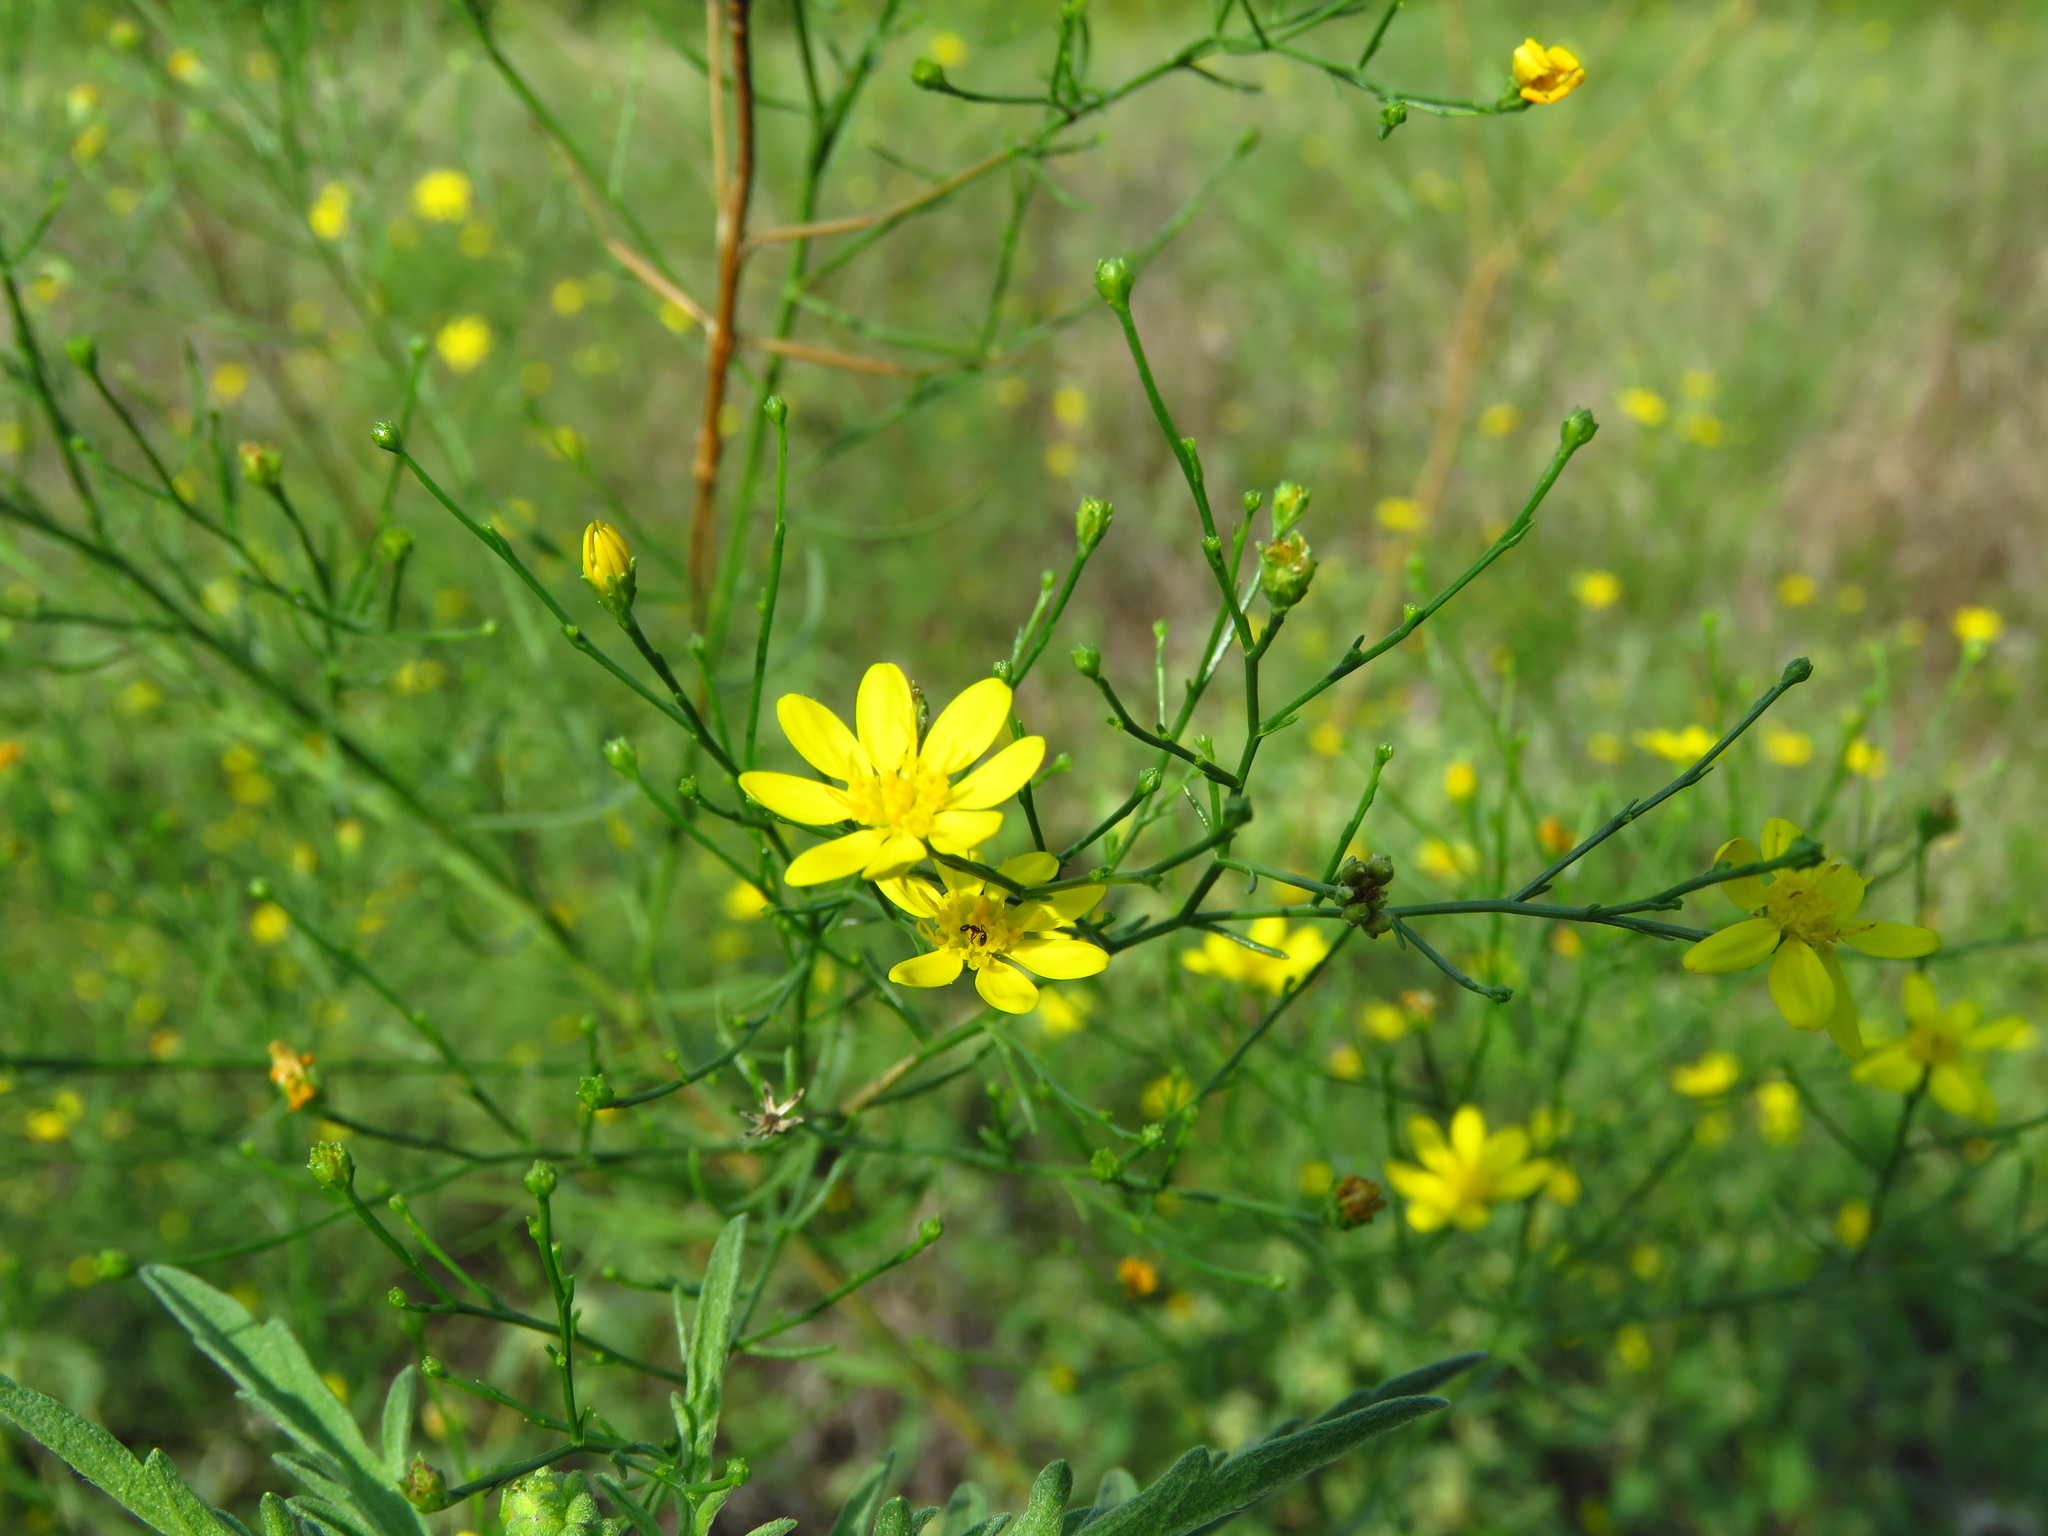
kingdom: Plantae
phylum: Tracheophyta
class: Magnoliopsida
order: Asterales
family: Asteraceae
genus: Gutierrezia
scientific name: Gutierrezia texana
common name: Texas snakeweed
